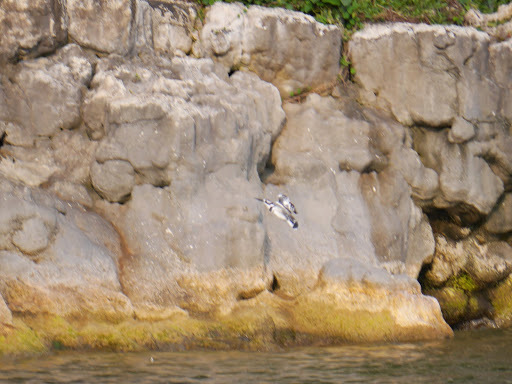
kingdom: Animalia
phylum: Chordata
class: Aves
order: Coraciiformes
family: Alcedinidae
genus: Ceryle
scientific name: Ceryle rudis
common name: Pied kingfisher
